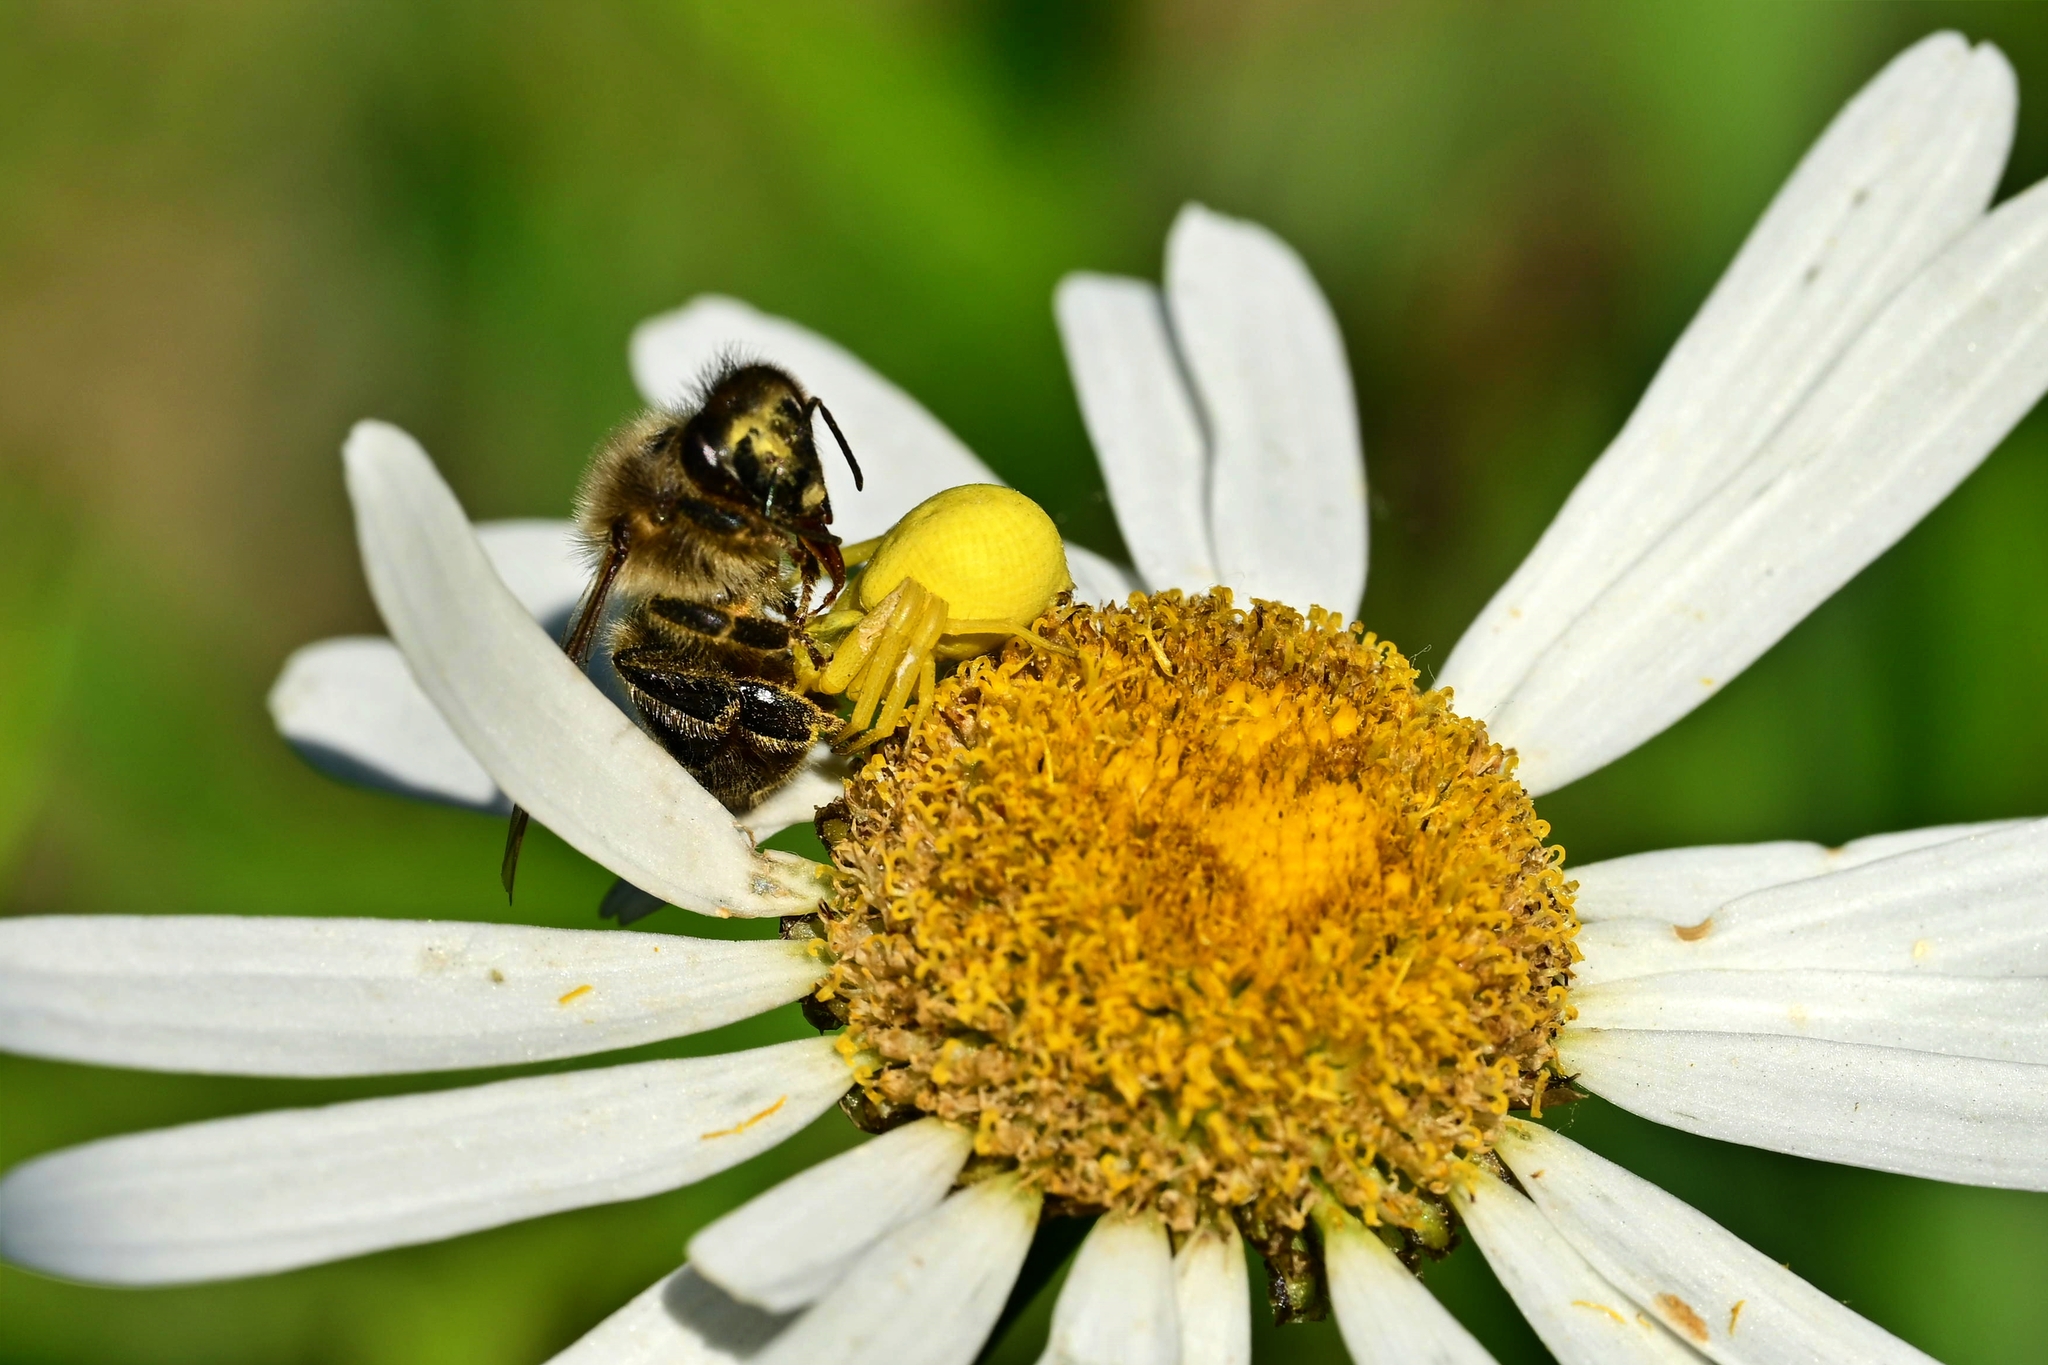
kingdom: Animalia
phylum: Arthropoda
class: Arachnida
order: Araneae
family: Thomisidae
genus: Misumena
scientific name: Misumena vatia
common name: Goldenrod crab spider
